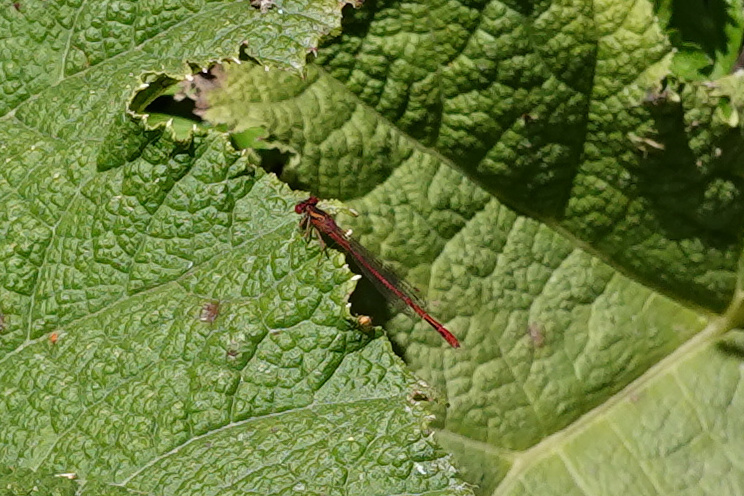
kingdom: Animalia
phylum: Arthropoda
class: Insecta
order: Odonata
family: Coenagrionidae
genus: Xanthocnemis
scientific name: Xanthocnemis zealandica
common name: Common redcoat damselfly
